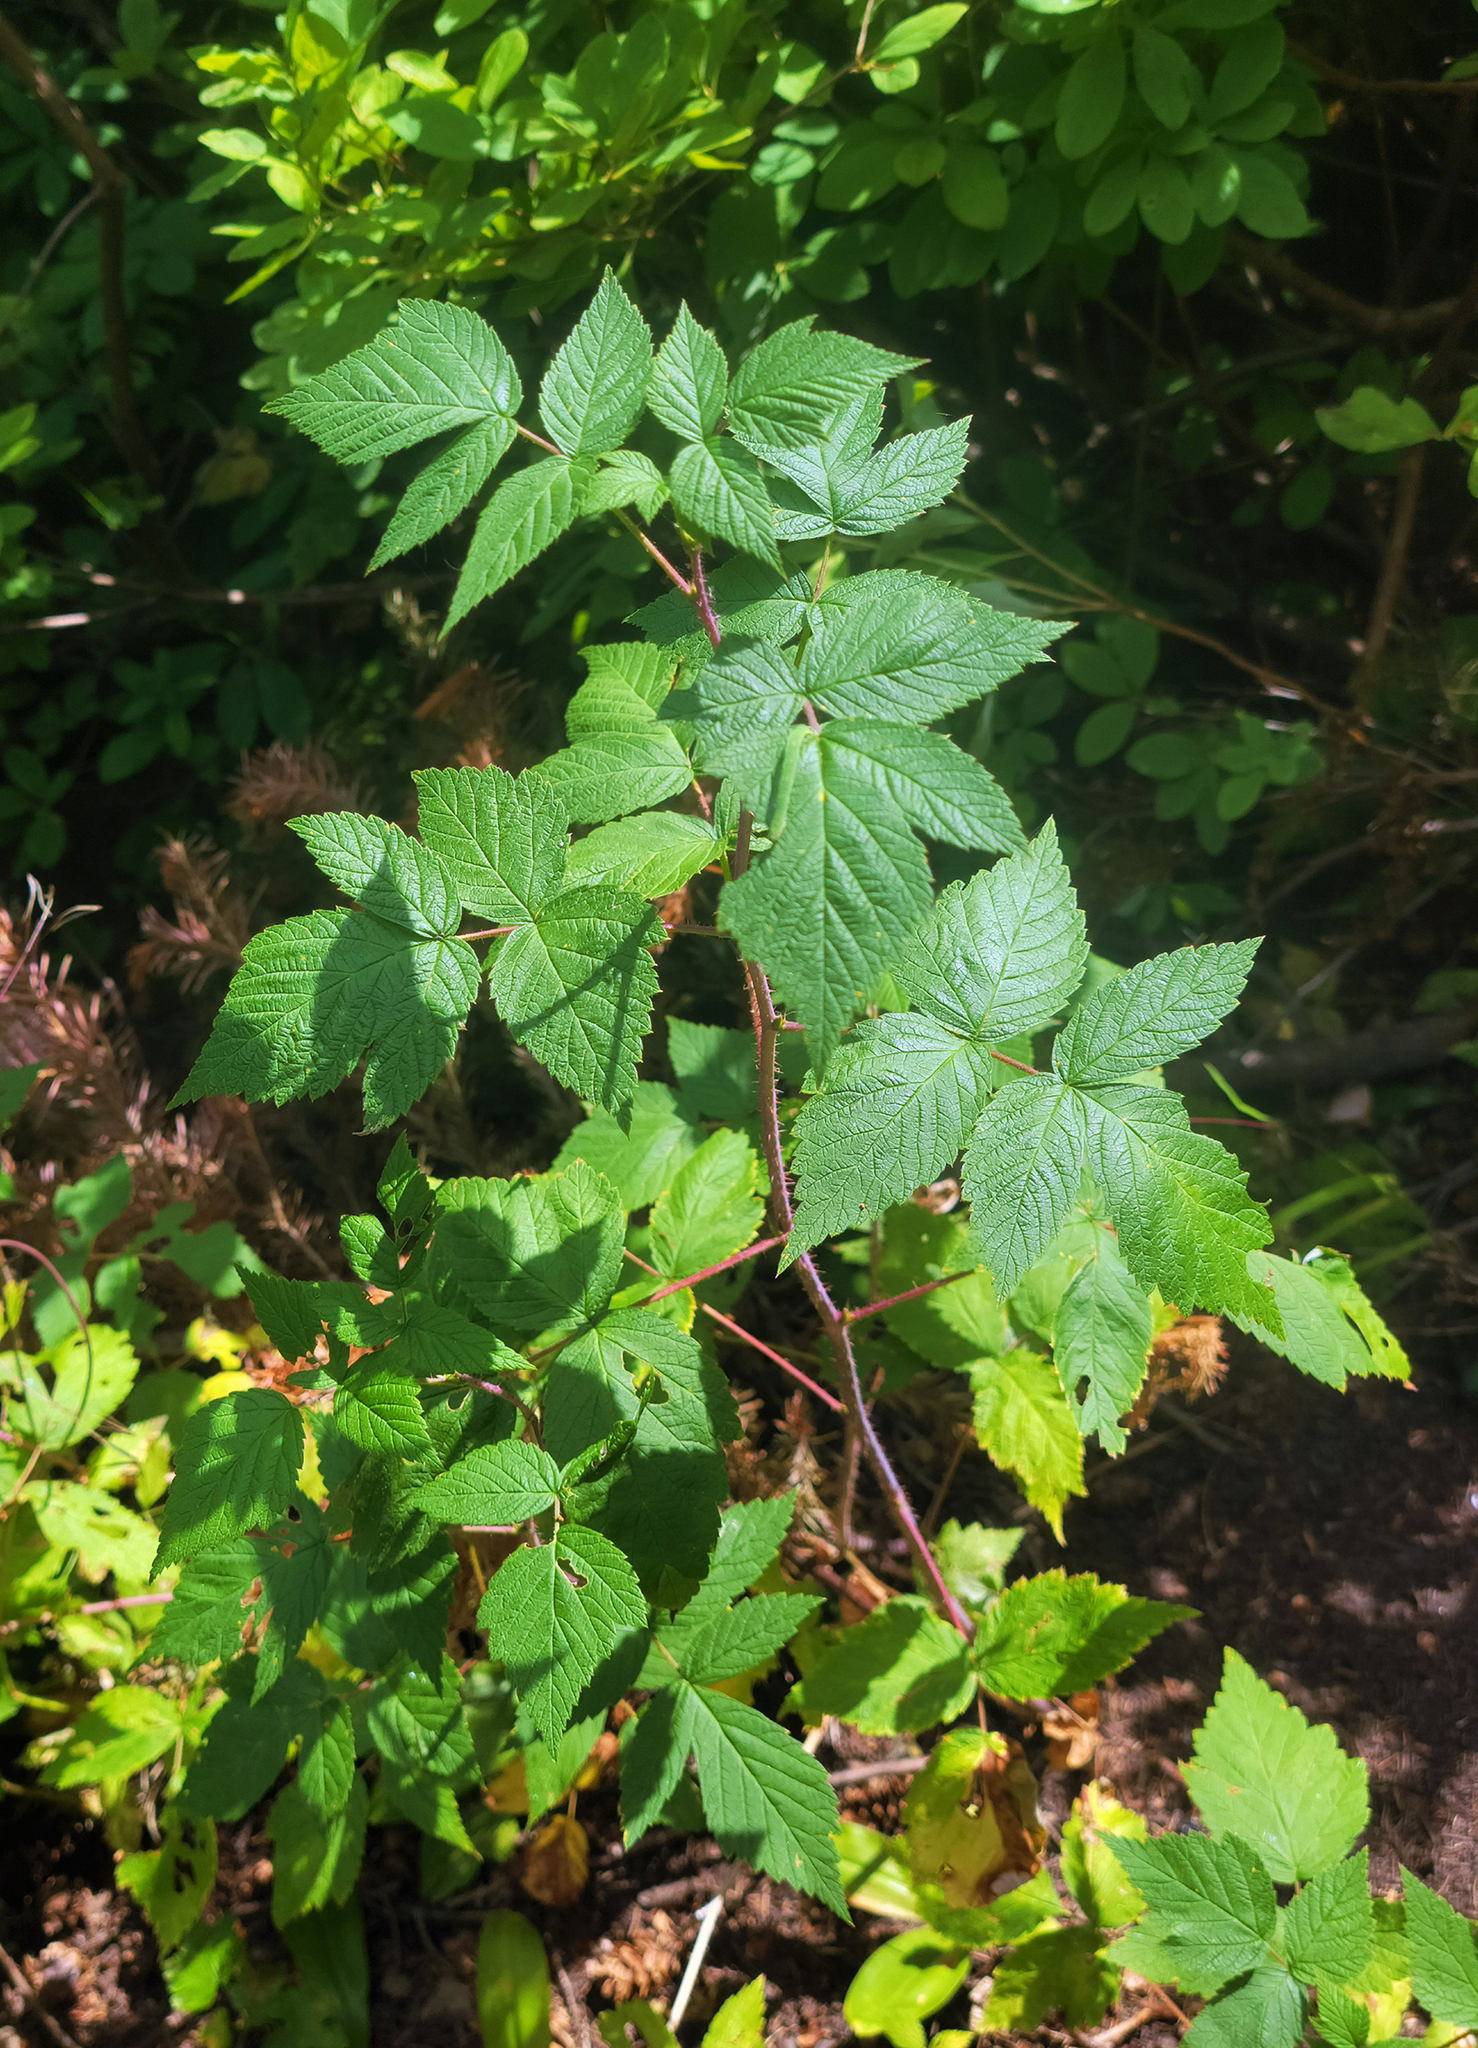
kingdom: Plantae
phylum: Tracheophyta
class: Magnoliopsida
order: Rosales
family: Rosaceae
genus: Rubus
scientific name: Rubus idaeus
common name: Raspberry
